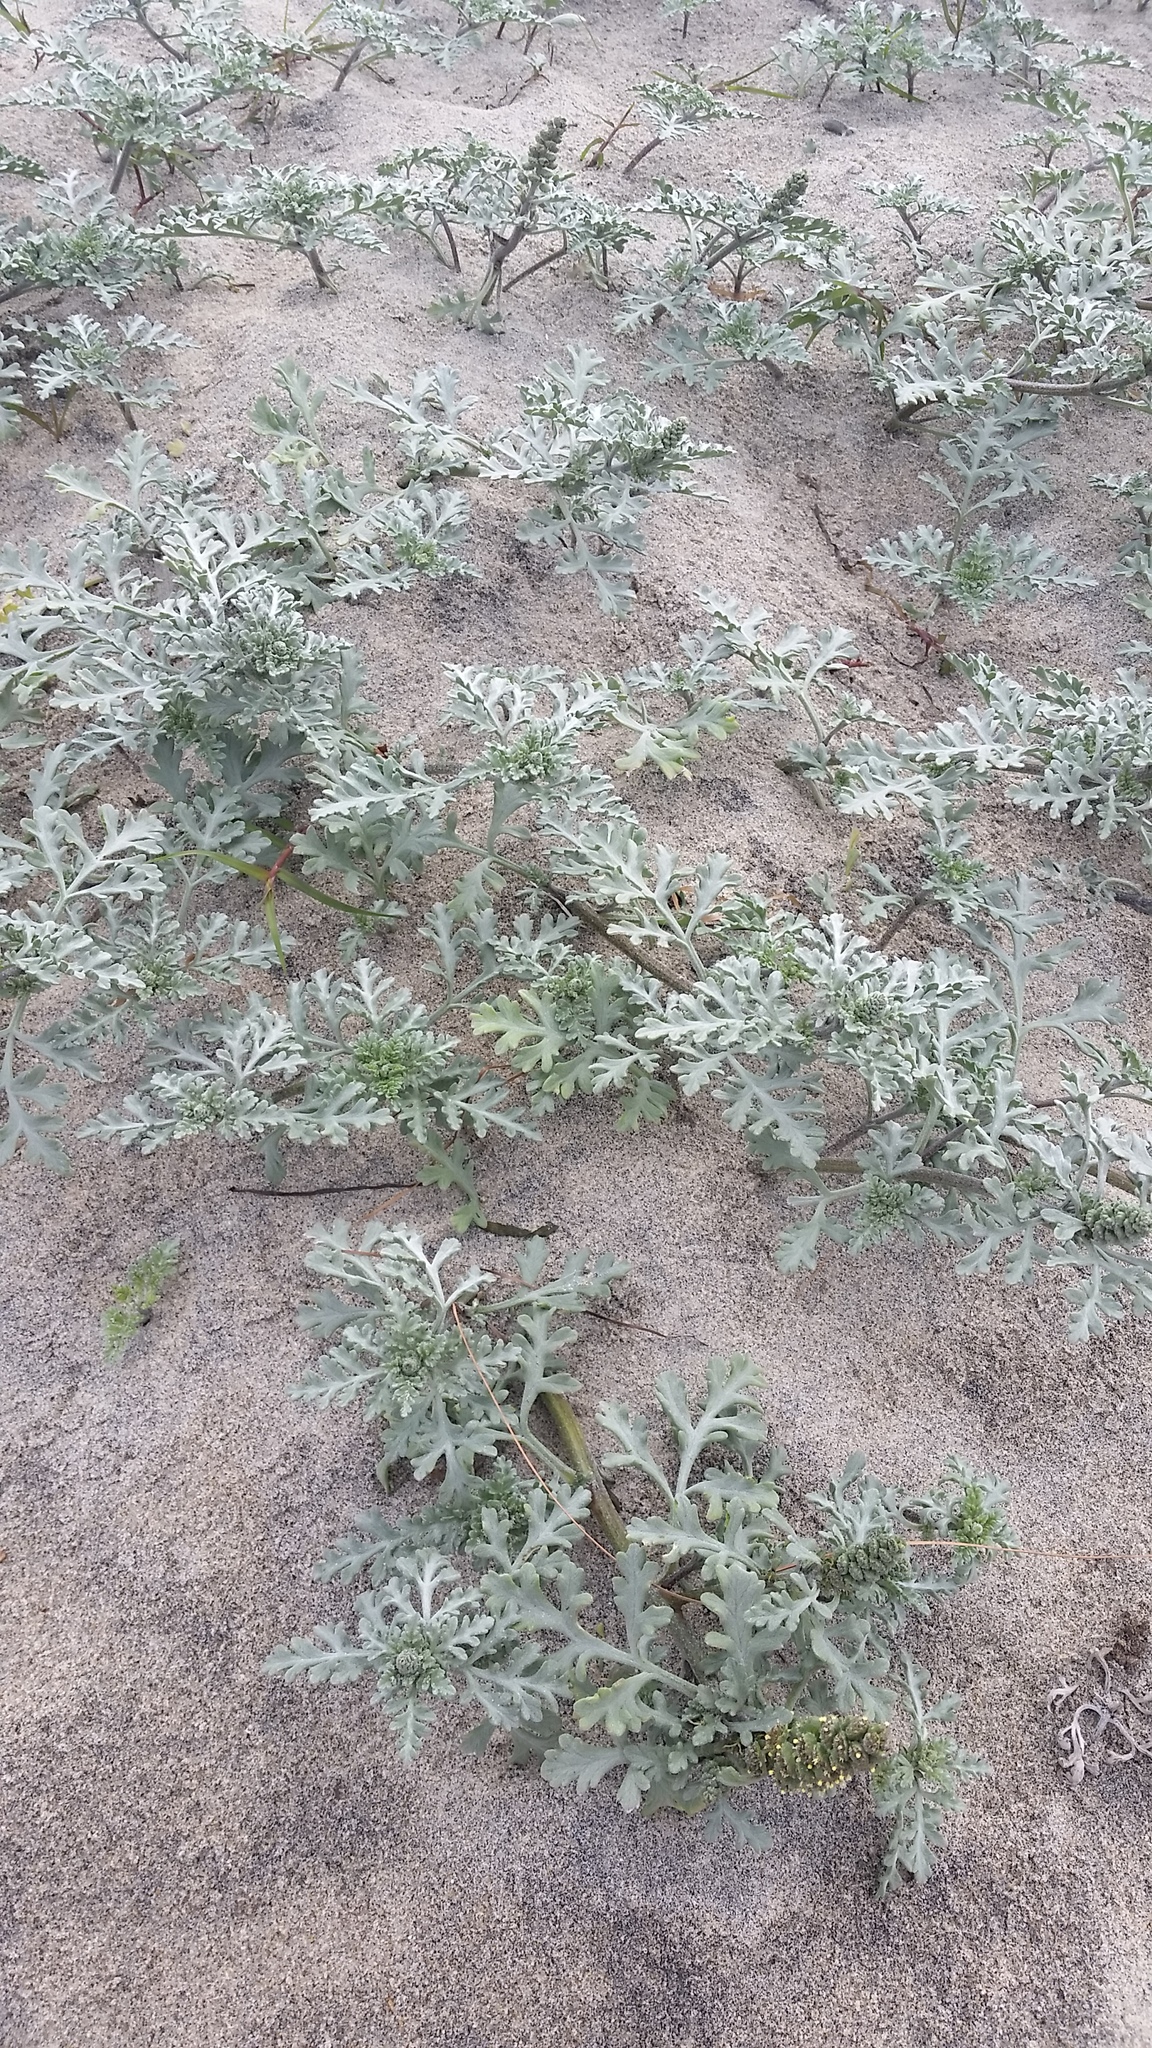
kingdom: Plantae
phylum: Tracheophyta
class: Magnoliopsida
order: Asterales
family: Asteraceae
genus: Ambrosia
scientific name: Ambrosia chamissonis
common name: Beachbur
